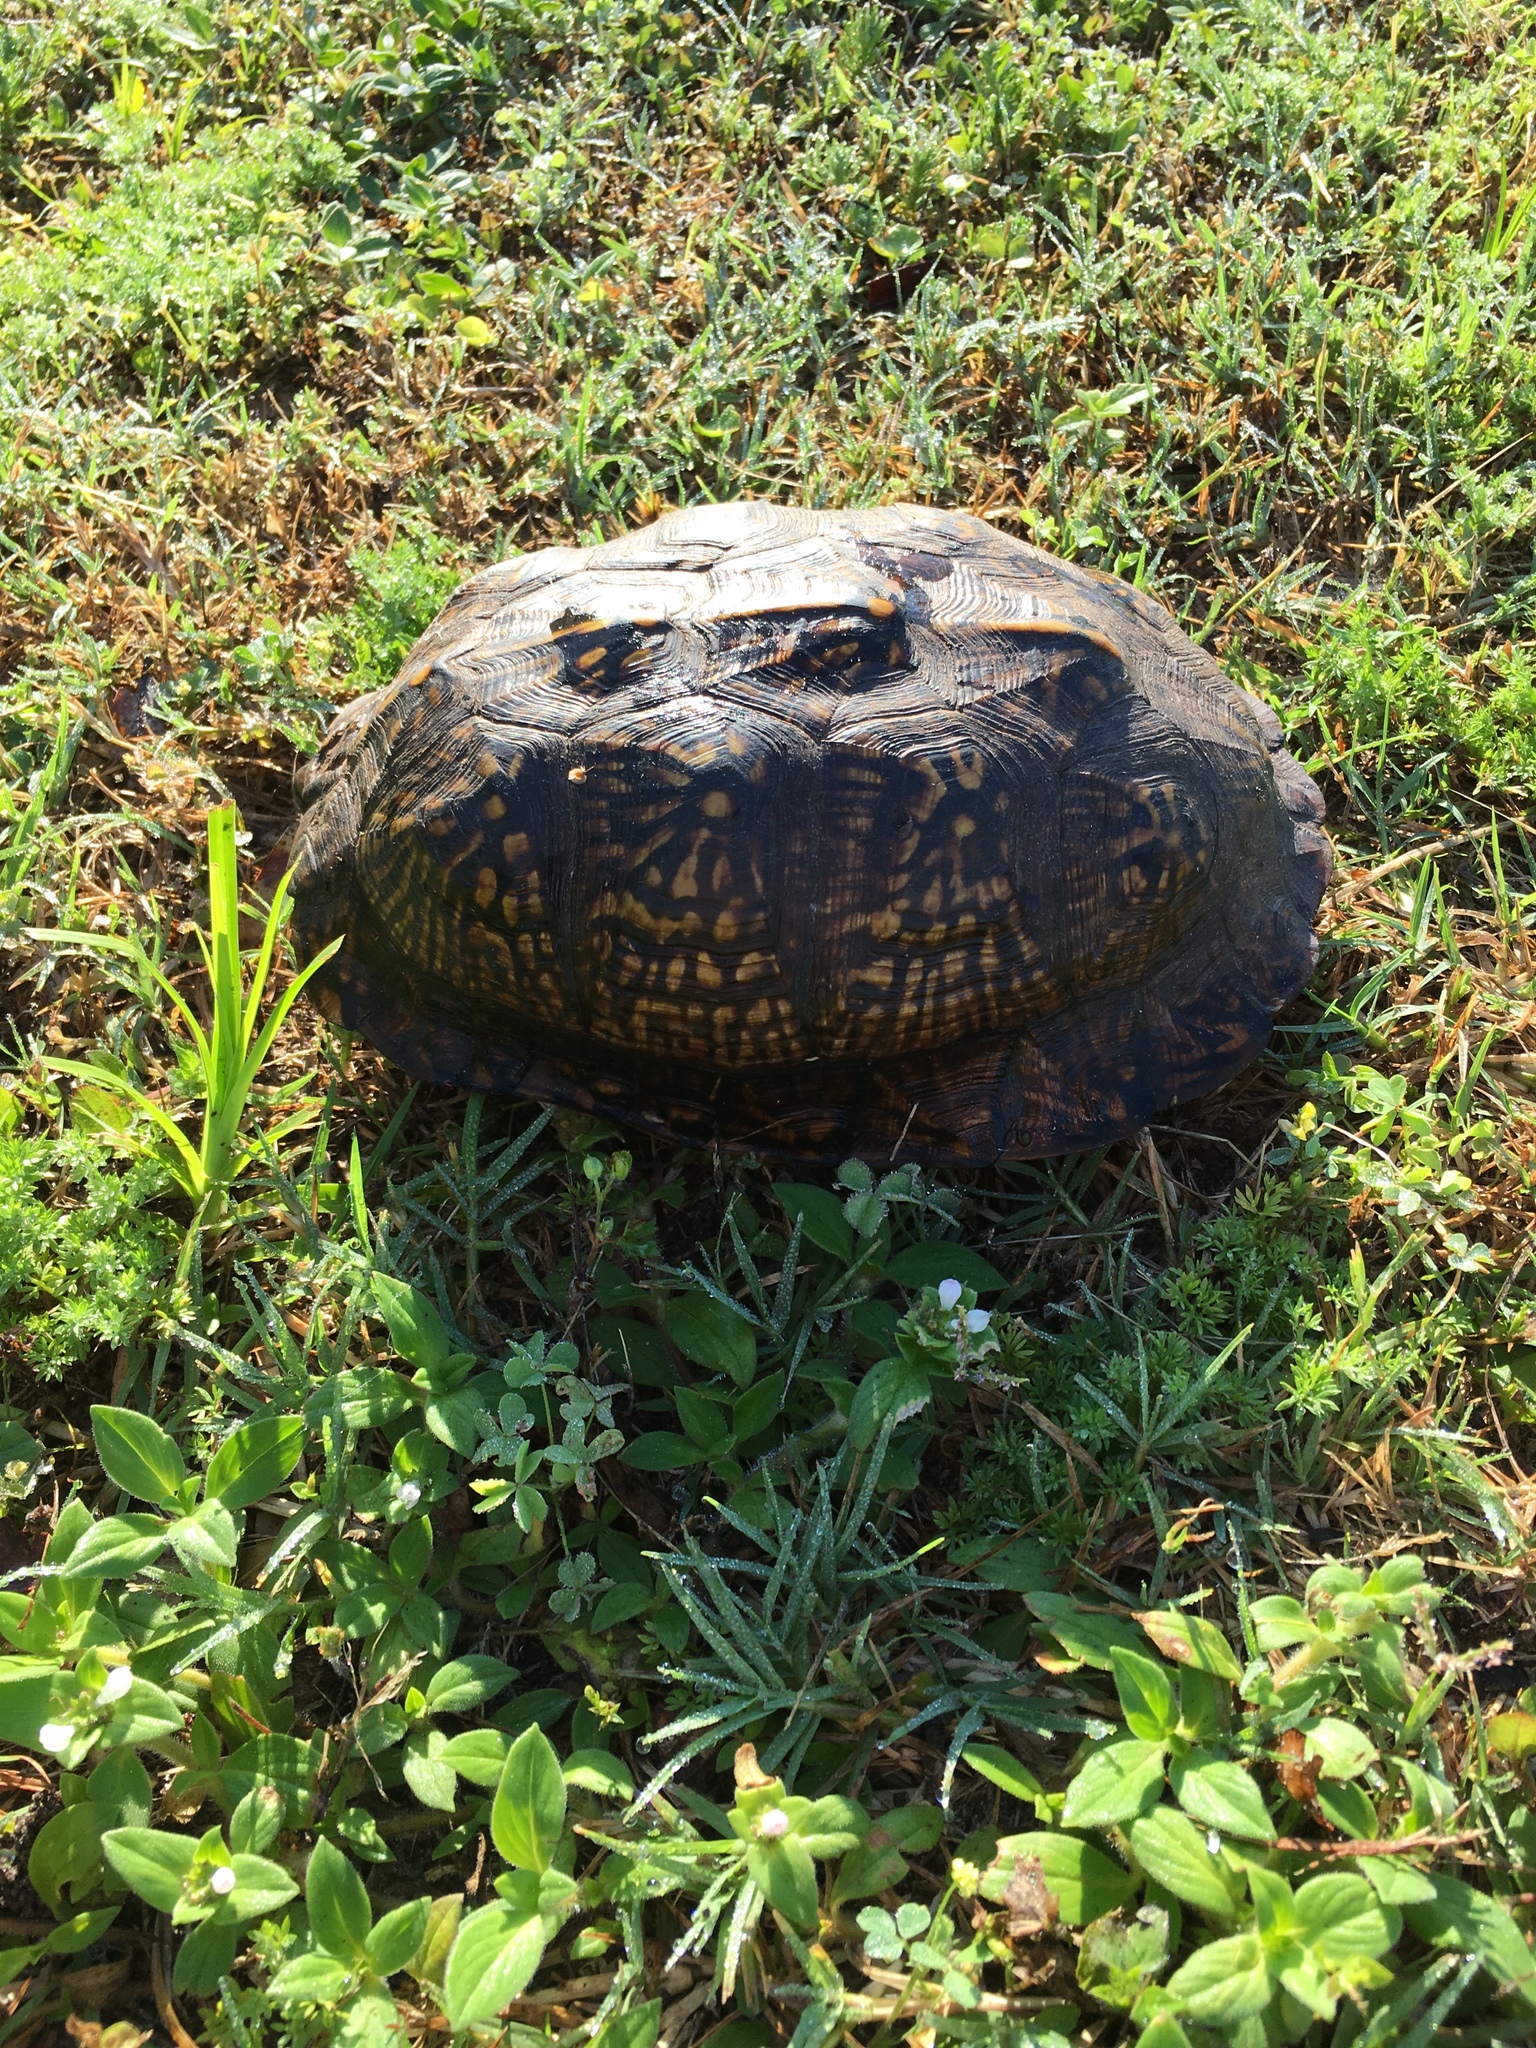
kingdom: Animalia
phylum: Chordata
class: Testudines
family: Emydidae
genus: Terrapene
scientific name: Terrapene carolina
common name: Common box turtle
